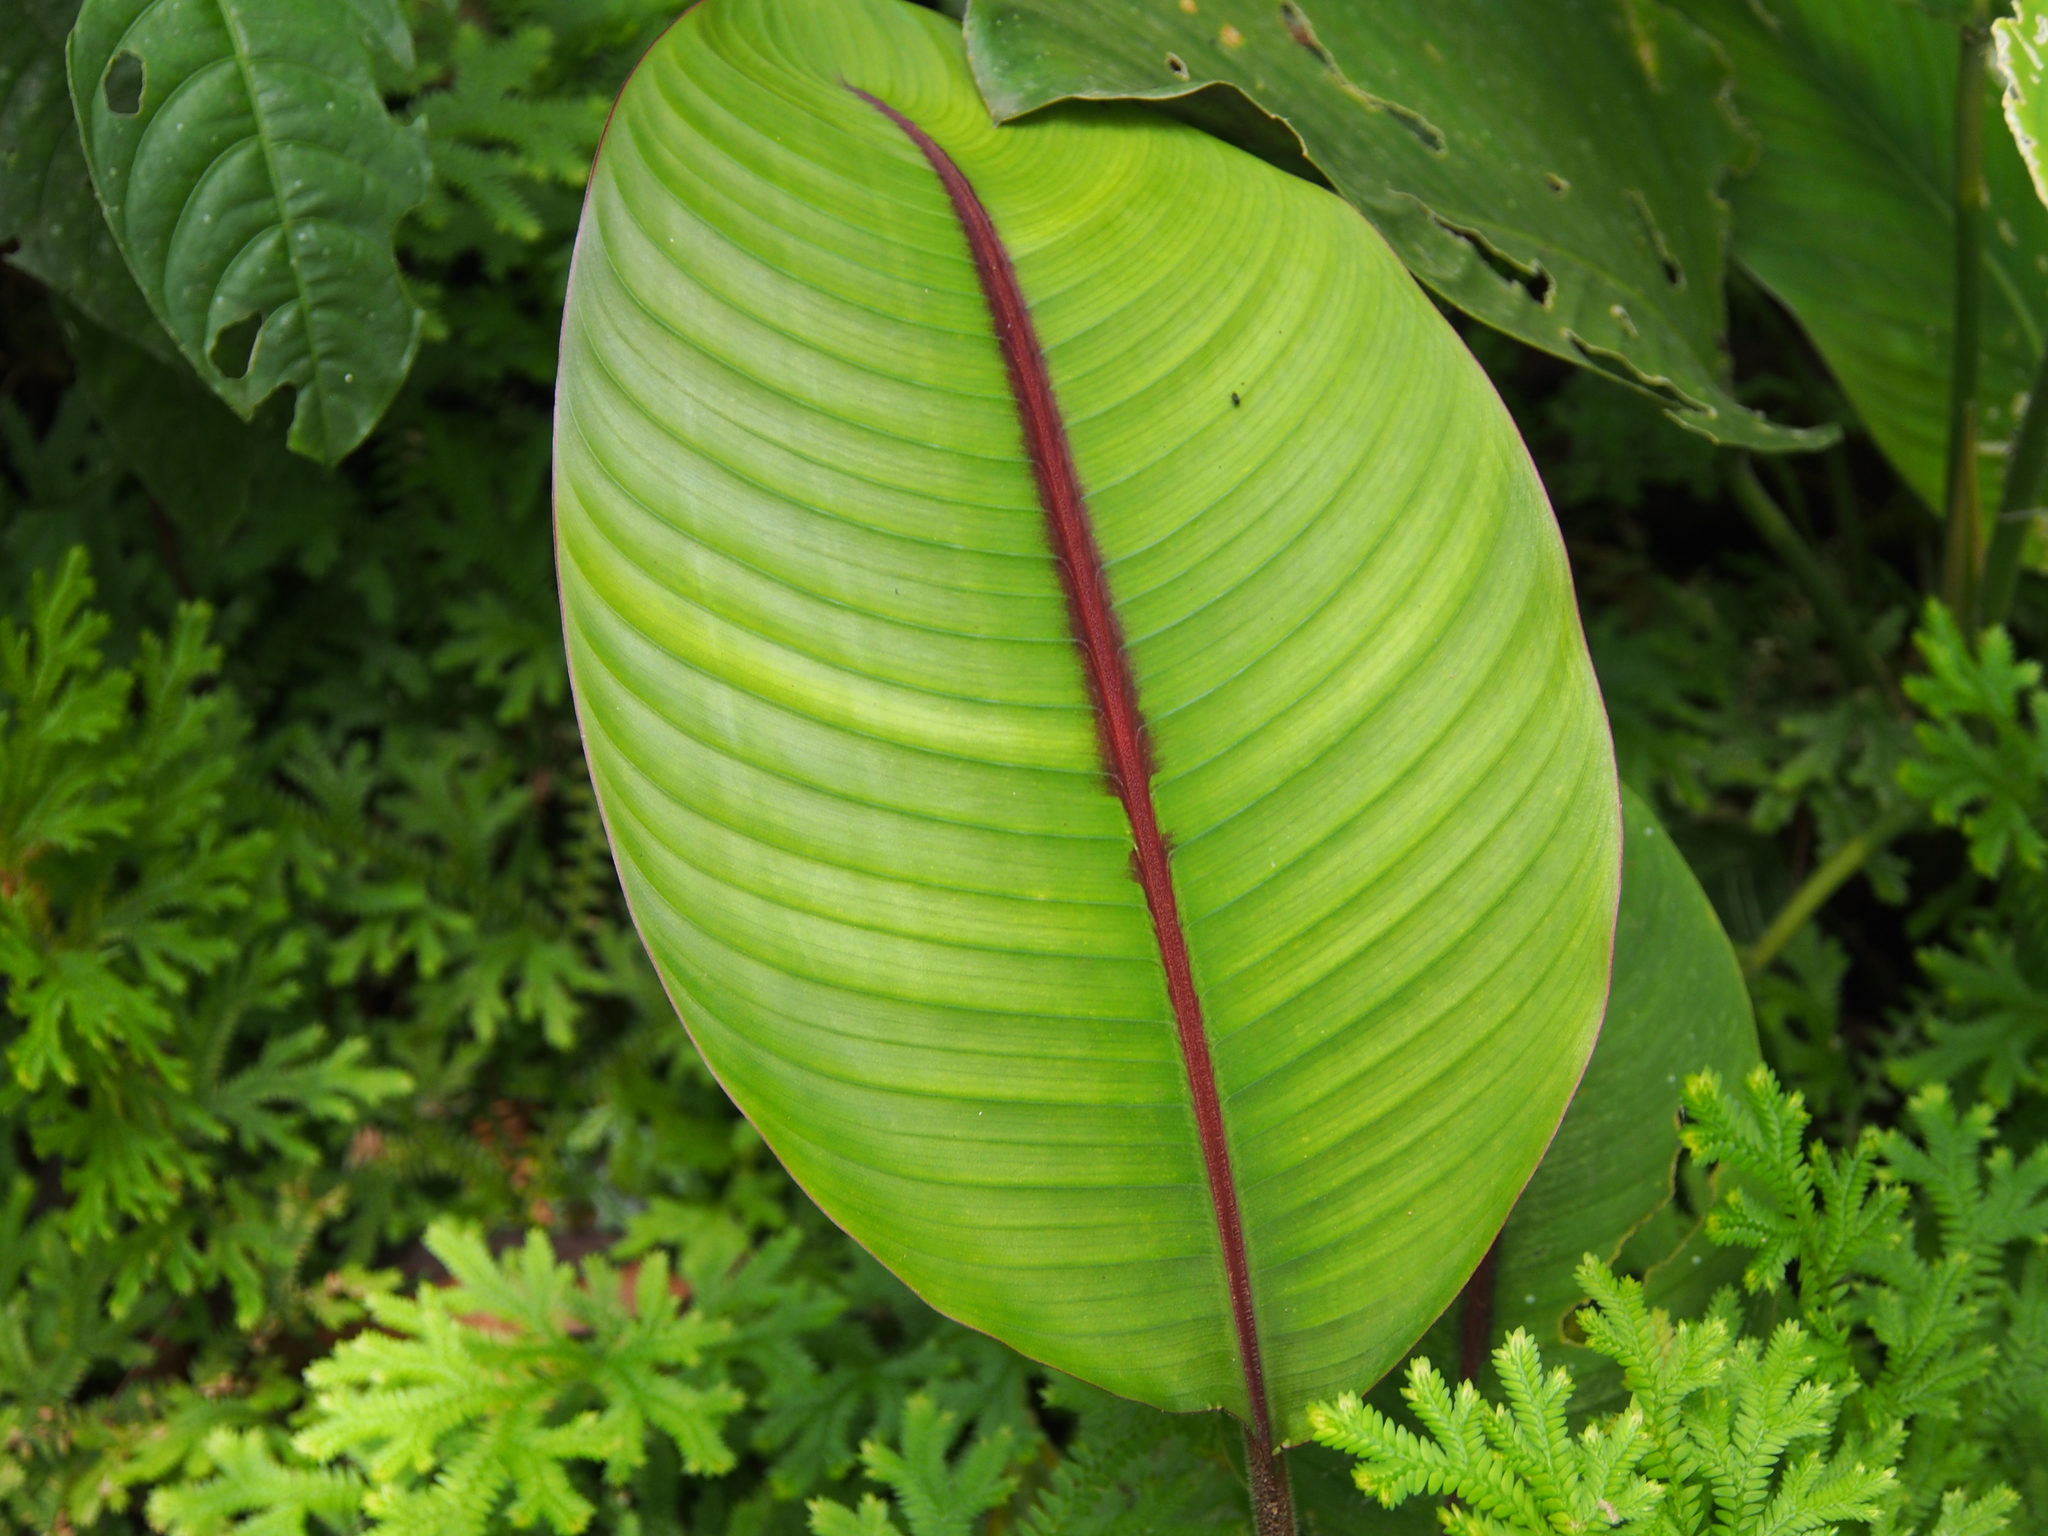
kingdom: Plantae
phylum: Tracheophyta
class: Liliopsida
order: Zingiberales
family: Heliconiaceae
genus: Heliconia
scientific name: Heliconia imbricata
